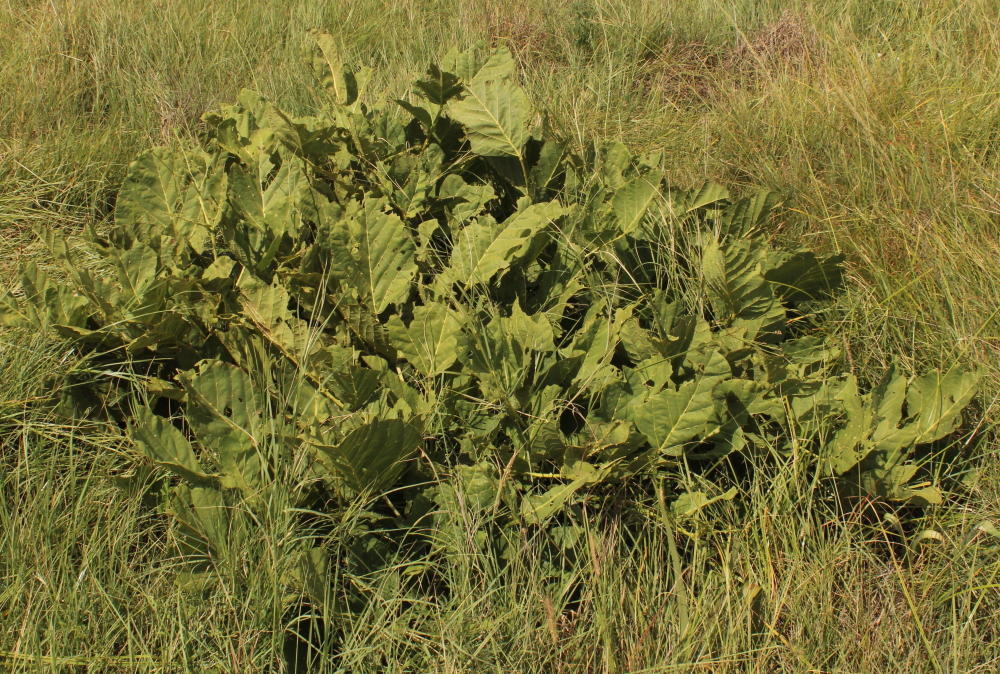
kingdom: Plantae
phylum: Tracheophyta
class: Magnoliopsida
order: Fabales
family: Fabaceae
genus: Erythrina
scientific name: Erythrina zeyheri
